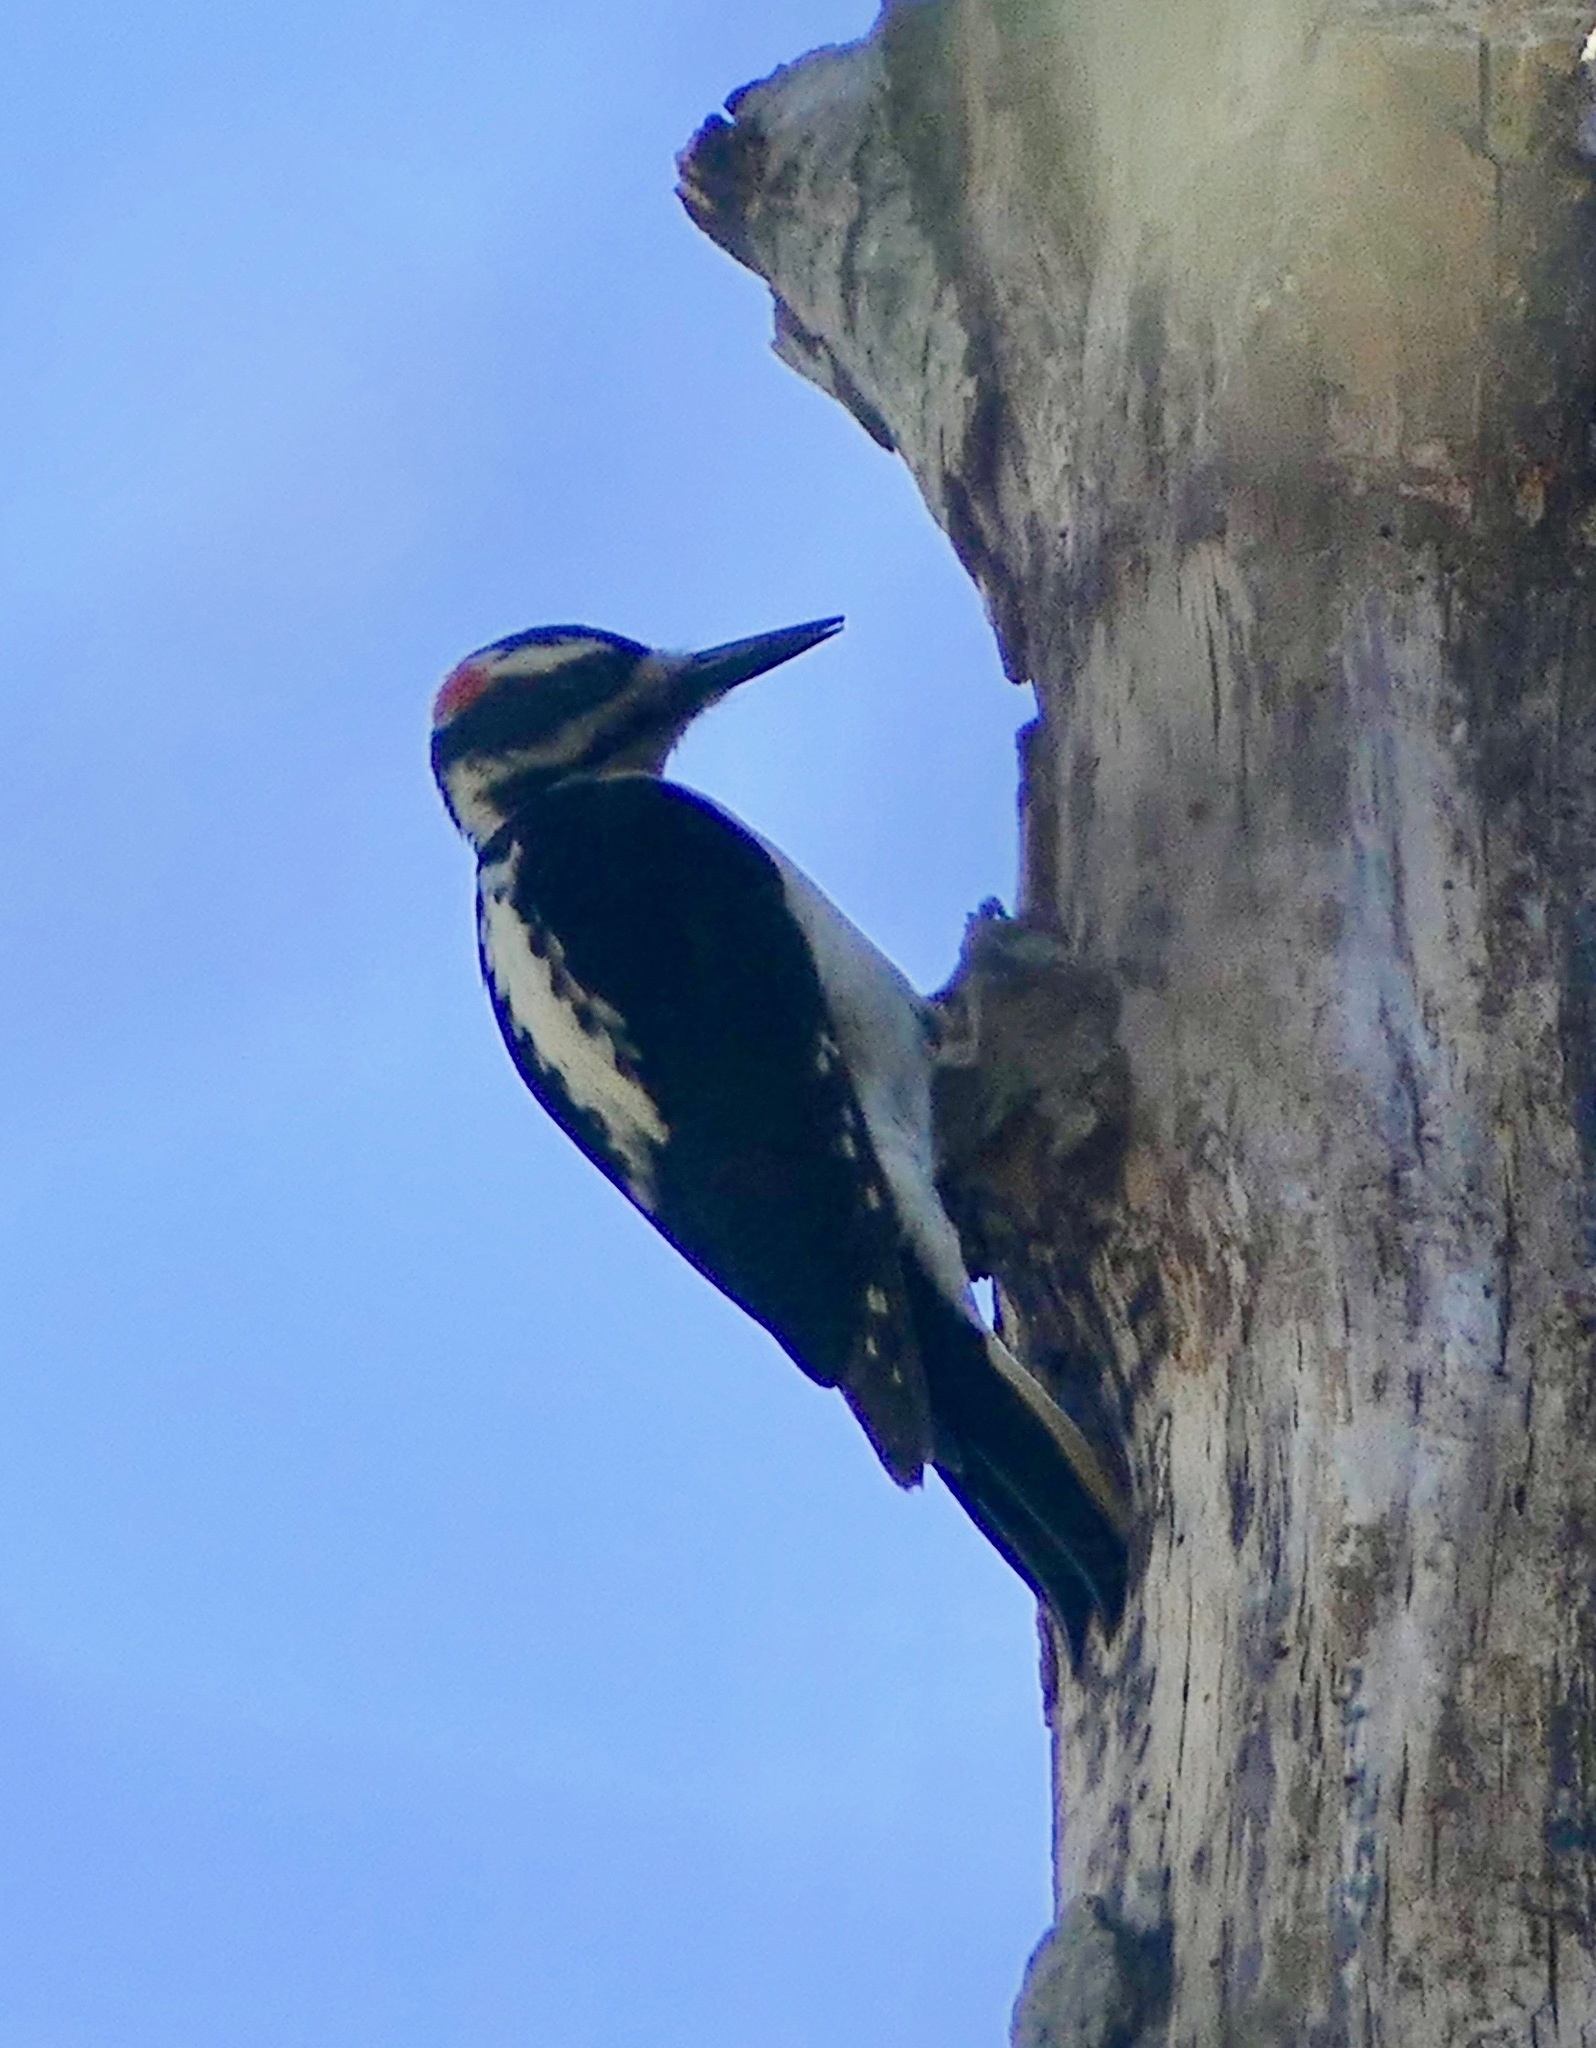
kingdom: Animalia
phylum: Chordata
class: Aves
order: Piciformes
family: Picidae
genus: Leuconotopicus
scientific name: Leuconotopicus villosus
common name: Hairy woodpecker
